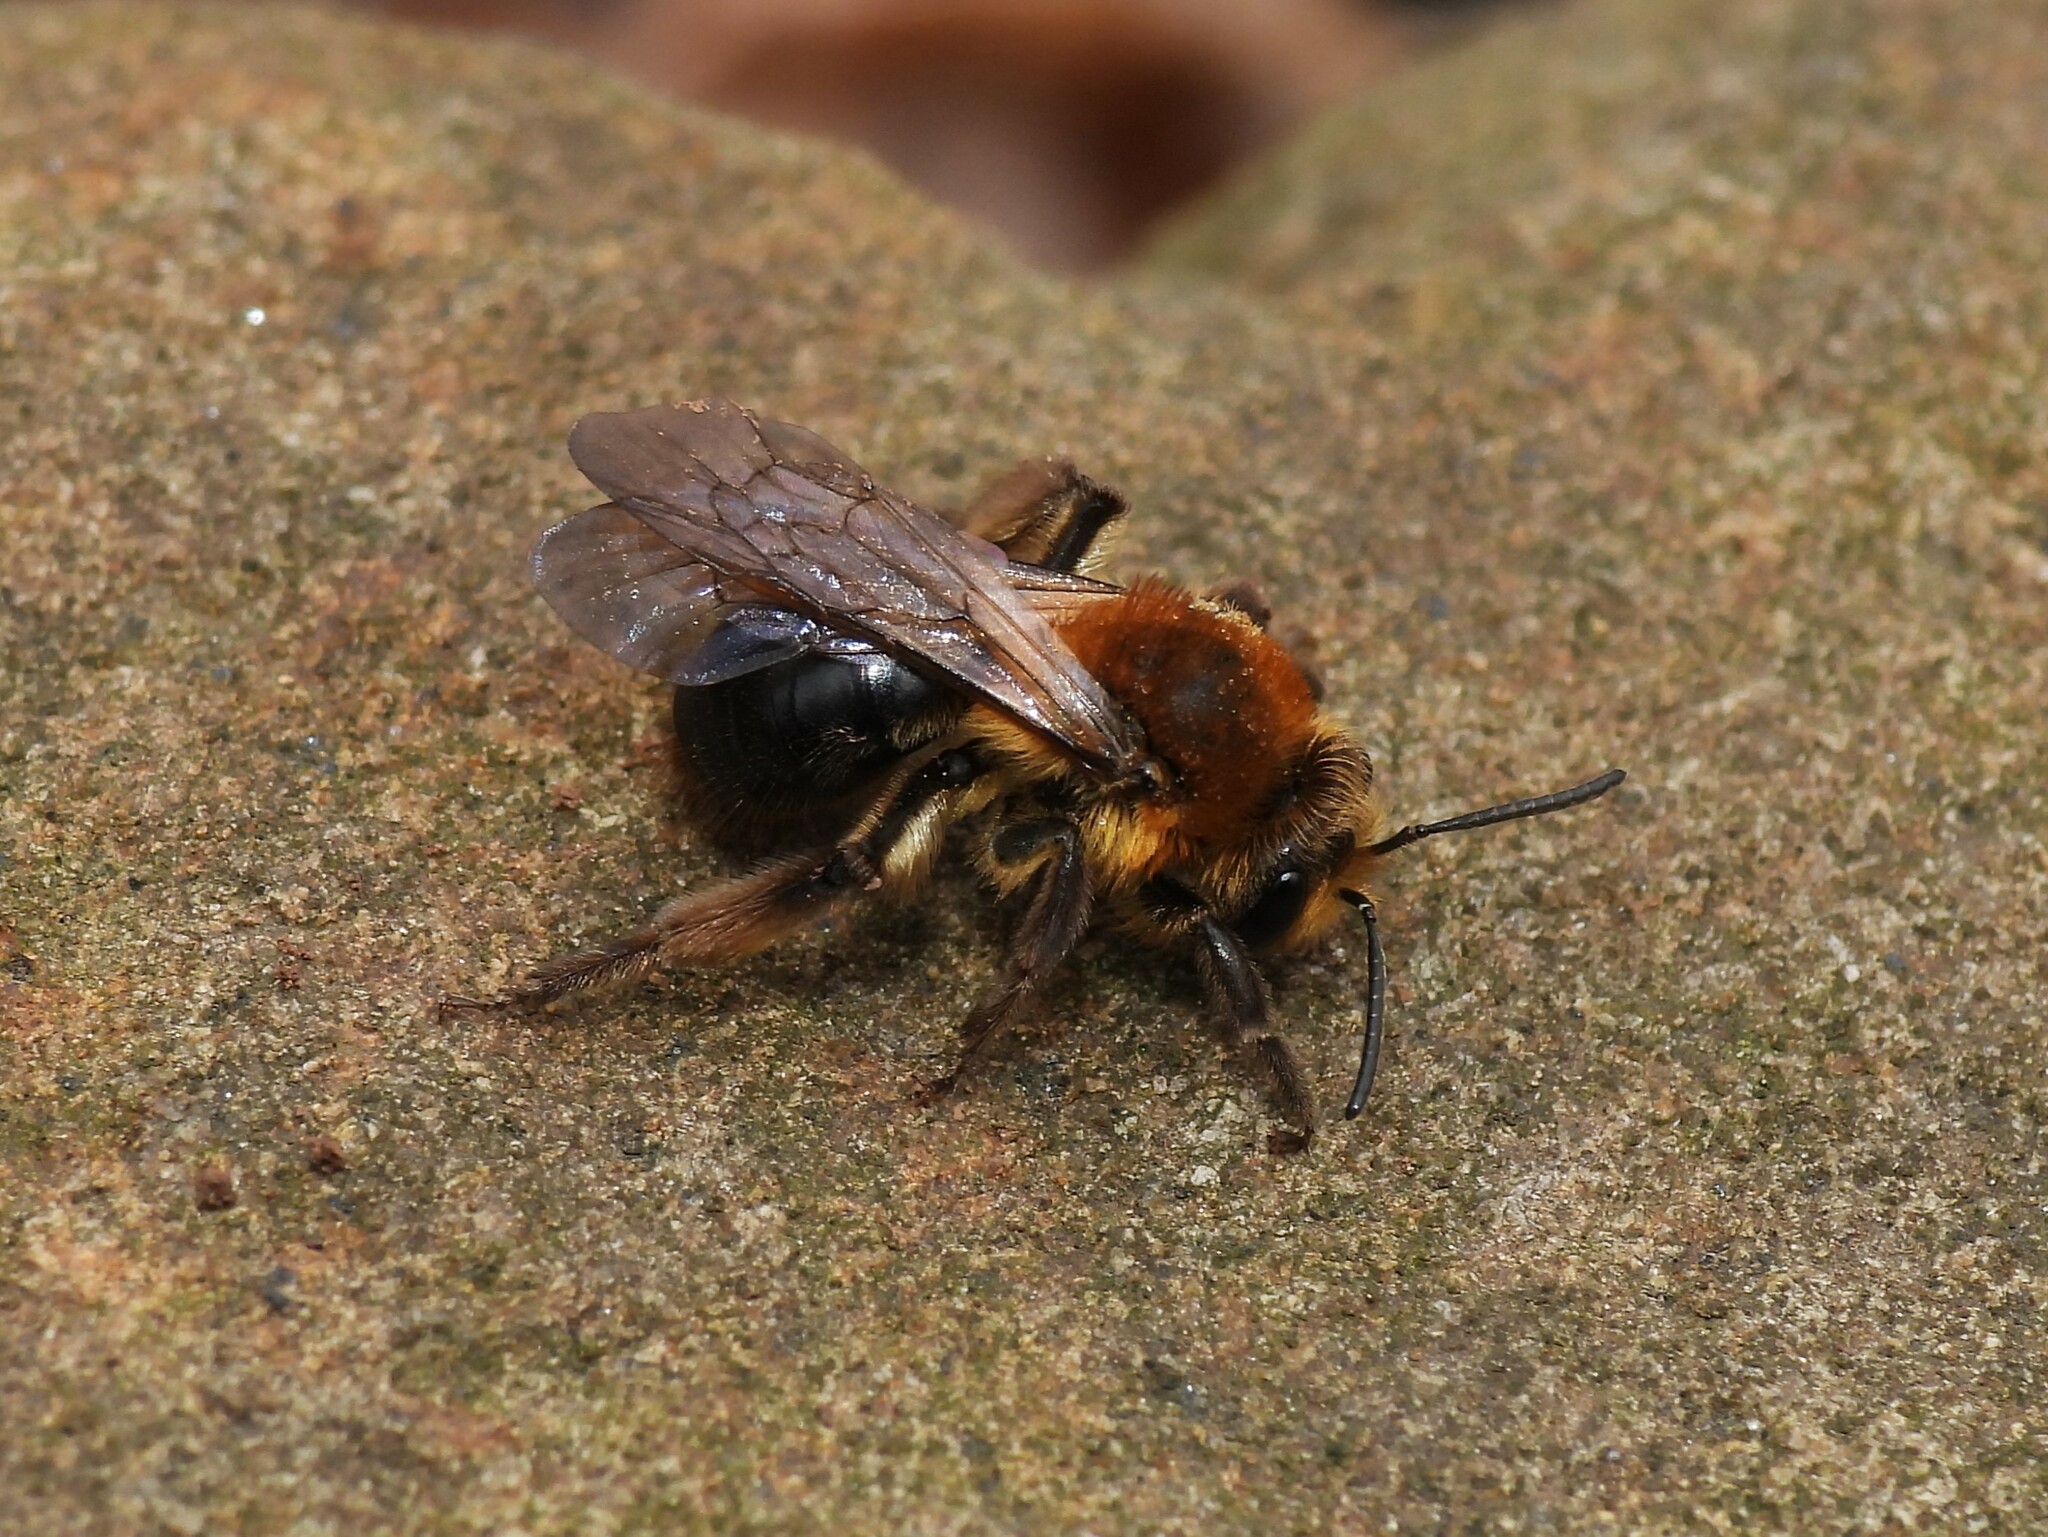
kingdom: Animalia
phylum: Arthropoda
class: Insecta
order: Hymenoptera
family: Andrenidae
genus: Andrena
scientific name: Andrena dunningi
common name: Dunning's miner
